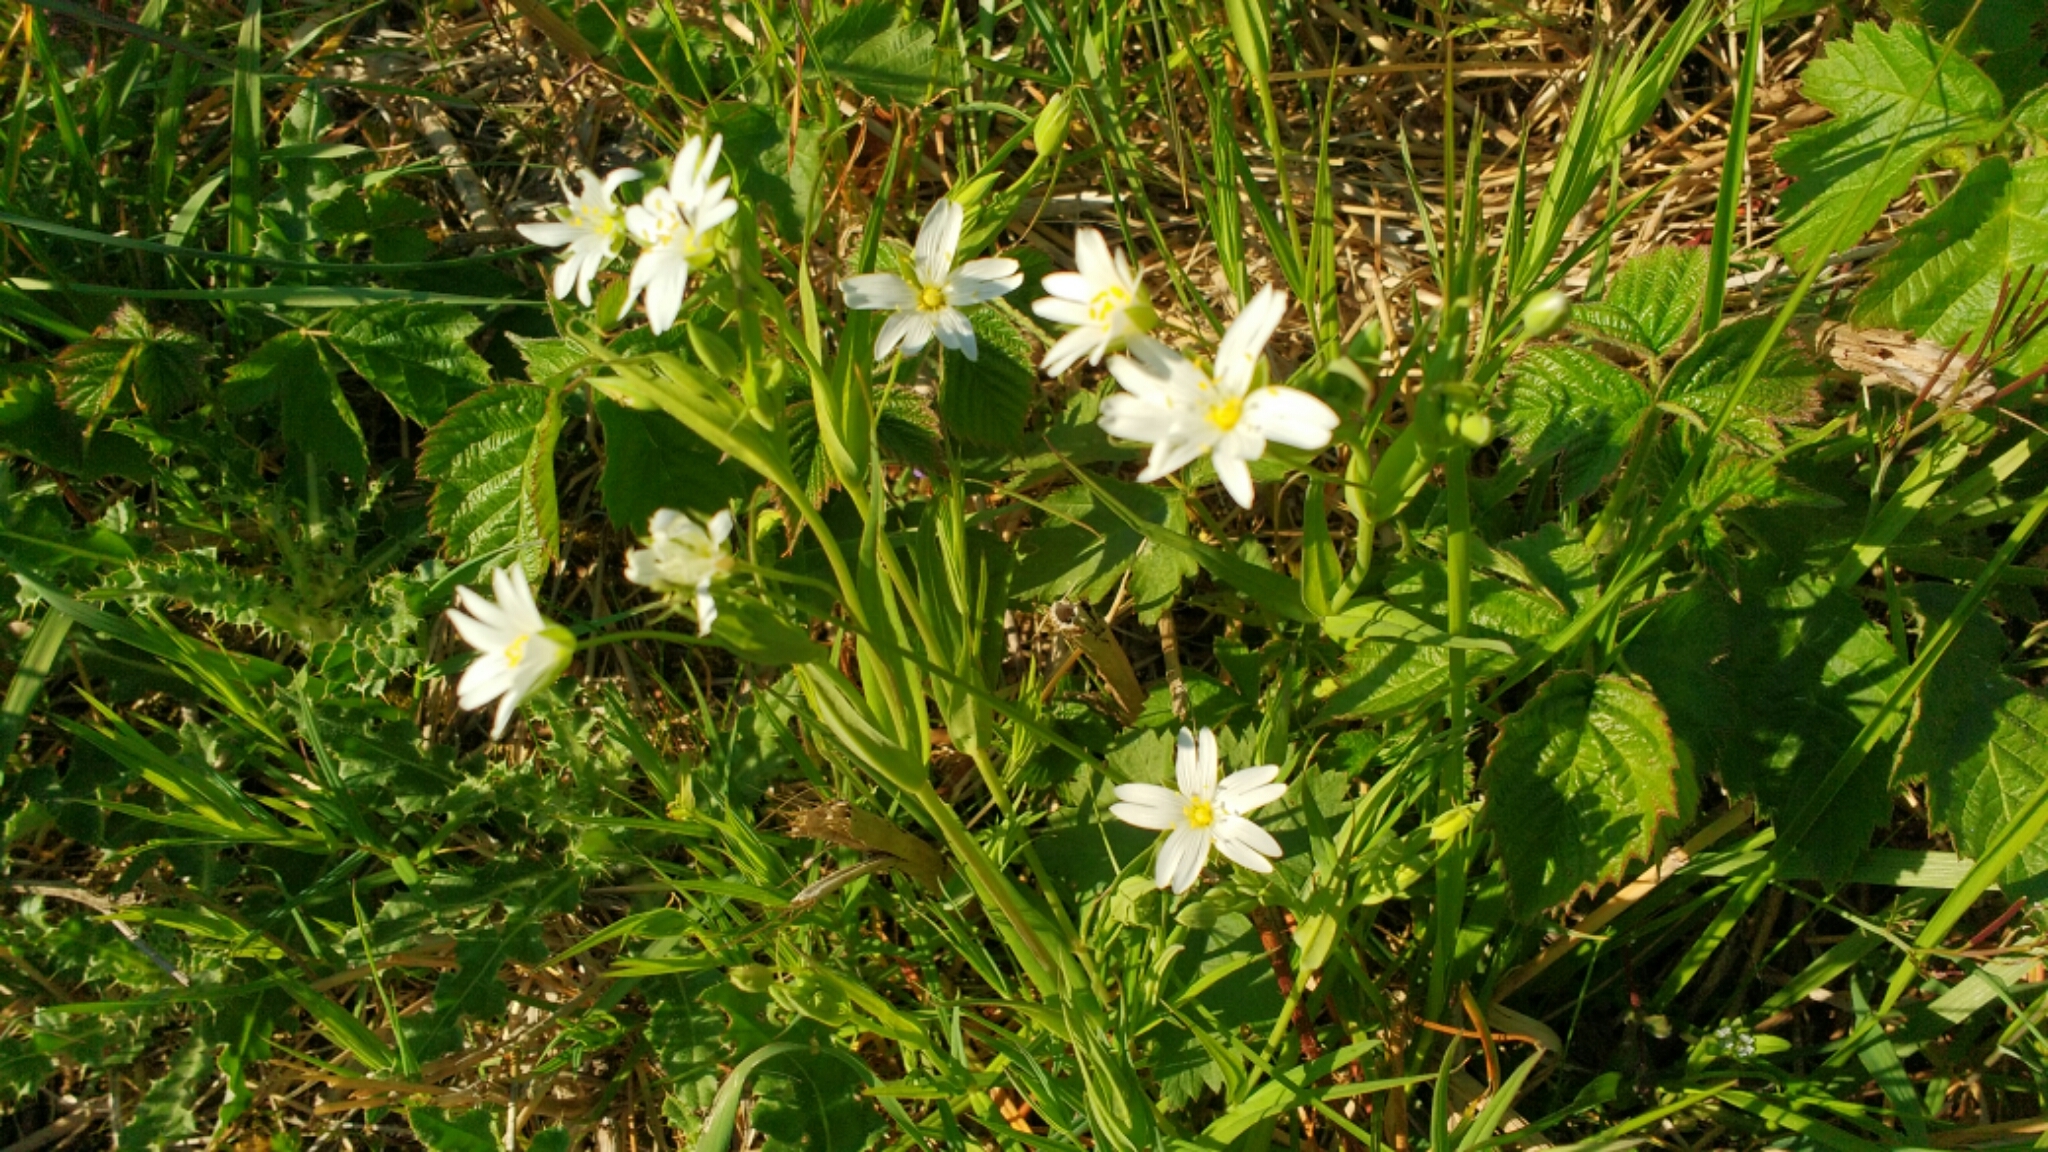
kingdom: Plantae
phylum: Tracheophyta
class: Magnoliopsida
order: Caryophyllales
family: Caryophyllaceae
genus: Rabelera
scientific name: Rabelera holostea
